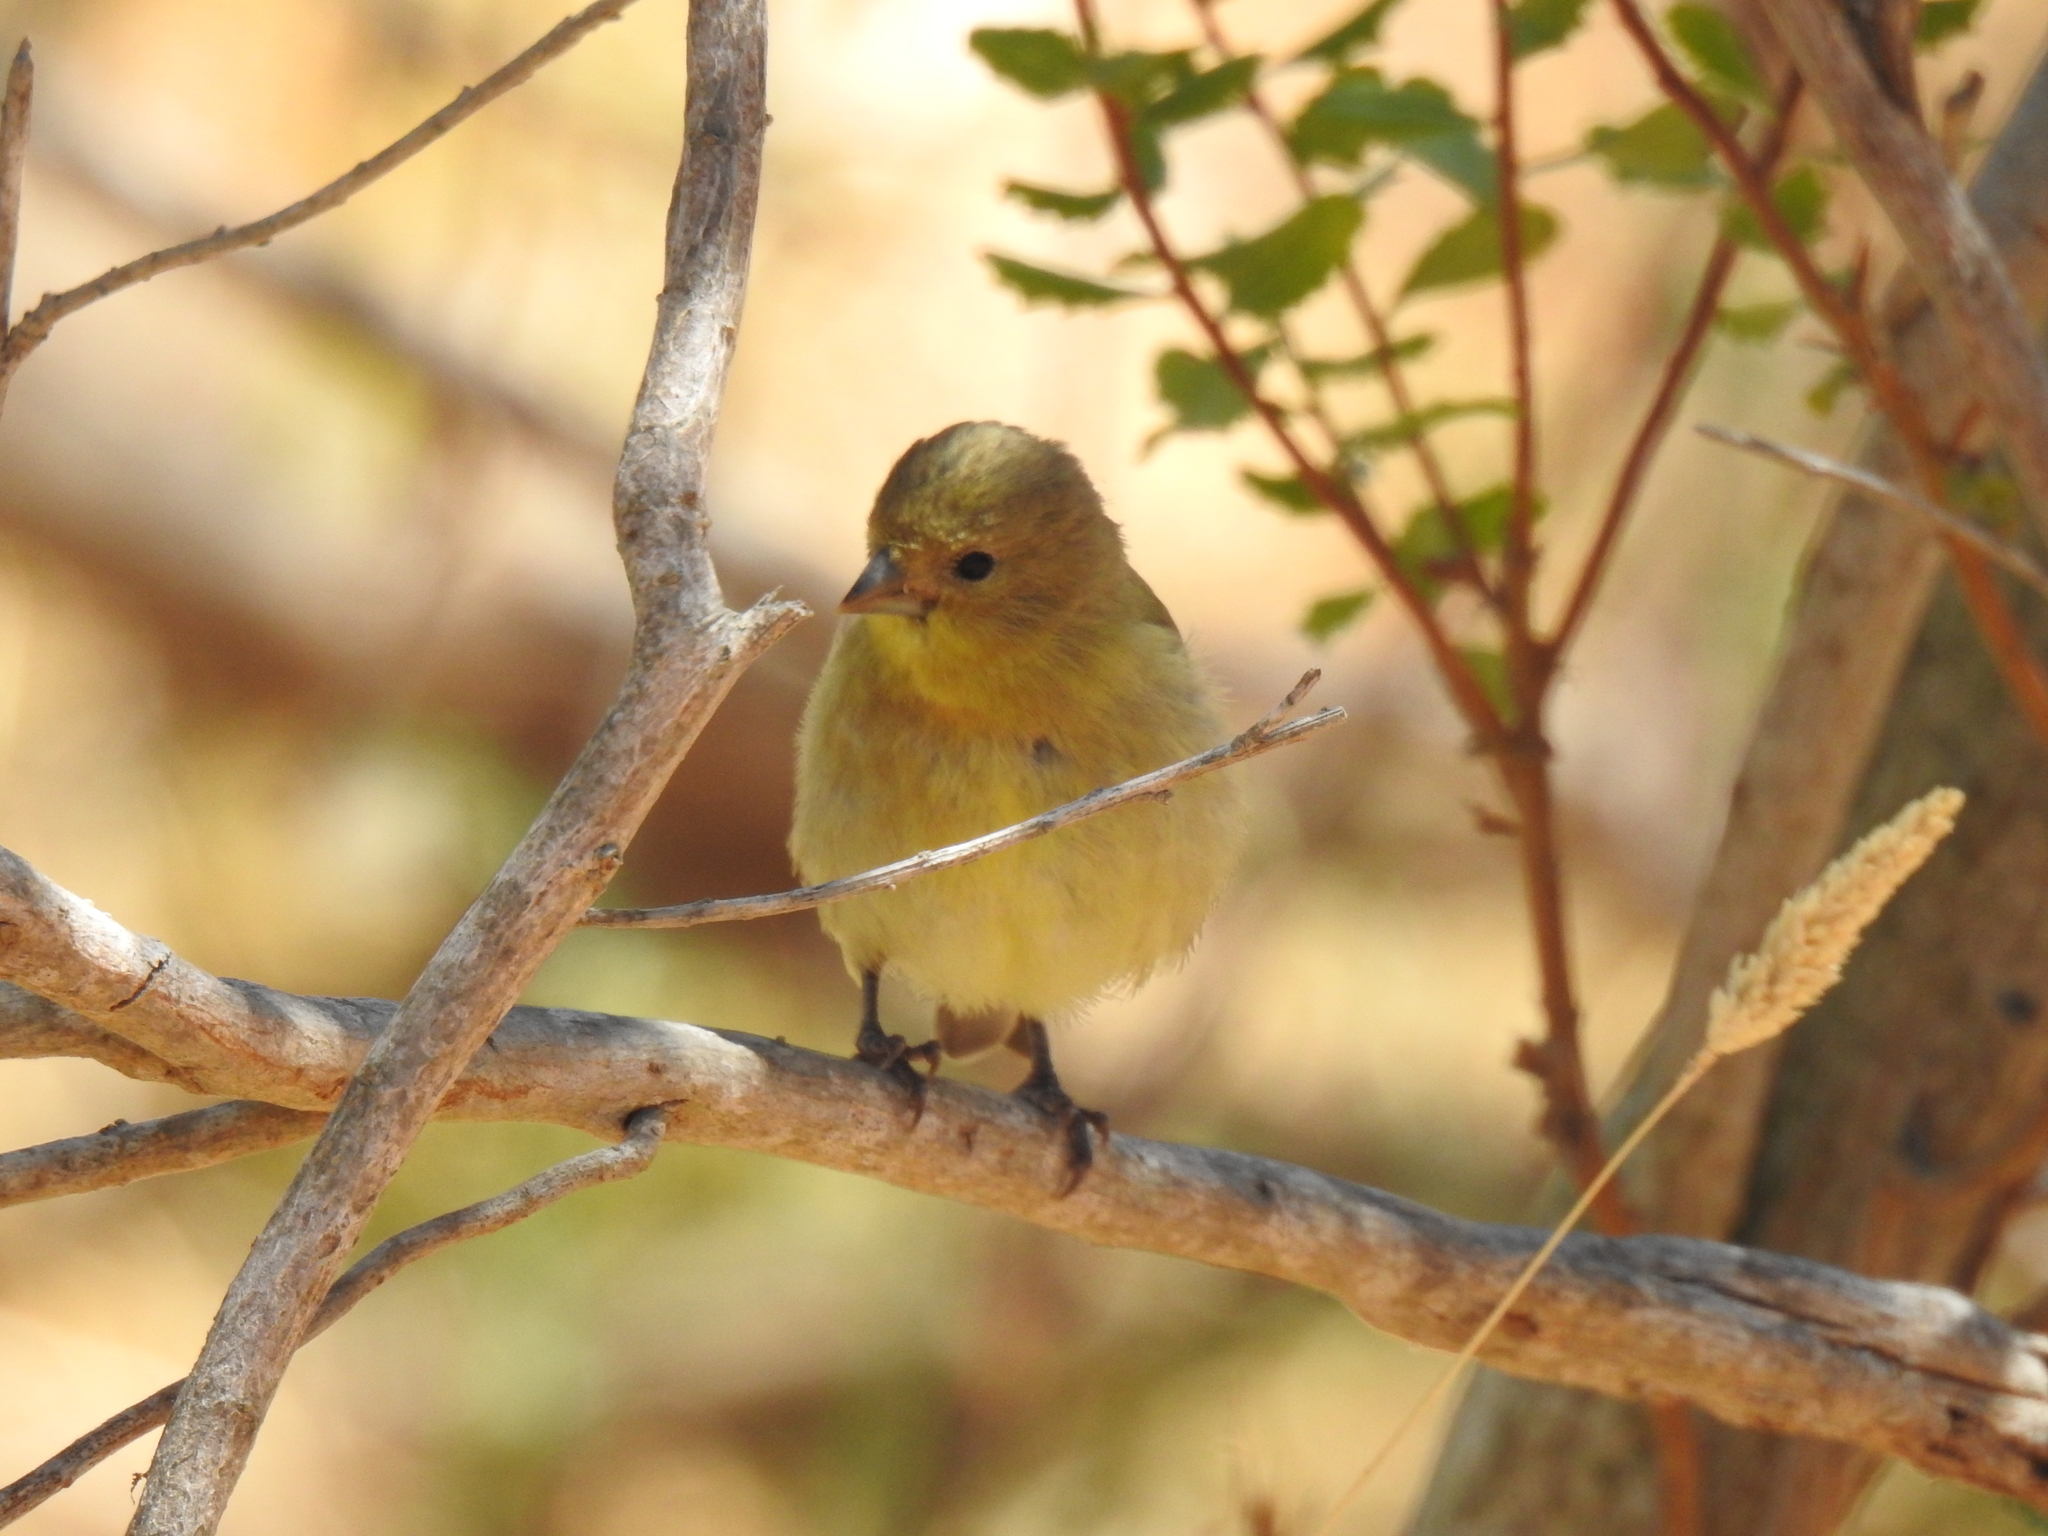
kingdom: Animalia
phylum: Chordata
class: Aves
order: Passeriformes
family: Fringillidae
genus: Spinus
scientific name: Spinus psaltria
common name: Lesser goldfinch
